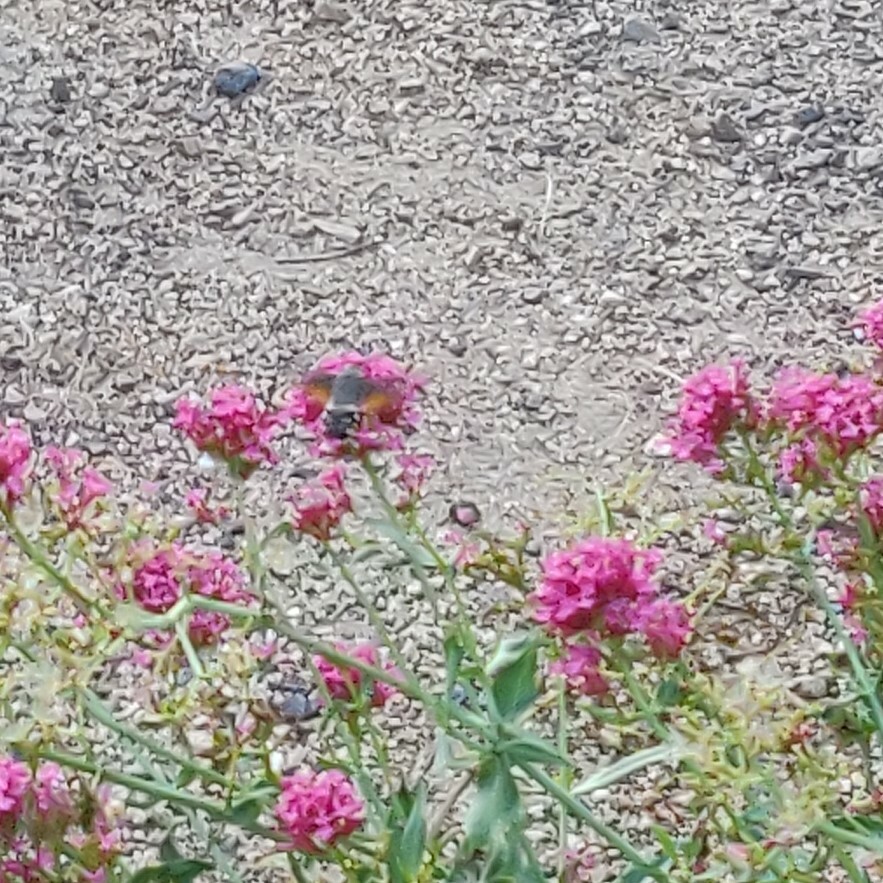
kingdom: Animalia
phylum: Arthropoda
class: Insecta
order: Lepidoptera
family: Sphingidae
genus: Macroglossum
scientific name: Macroglossum stellatarum
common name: Humming-bird hawk-moth
